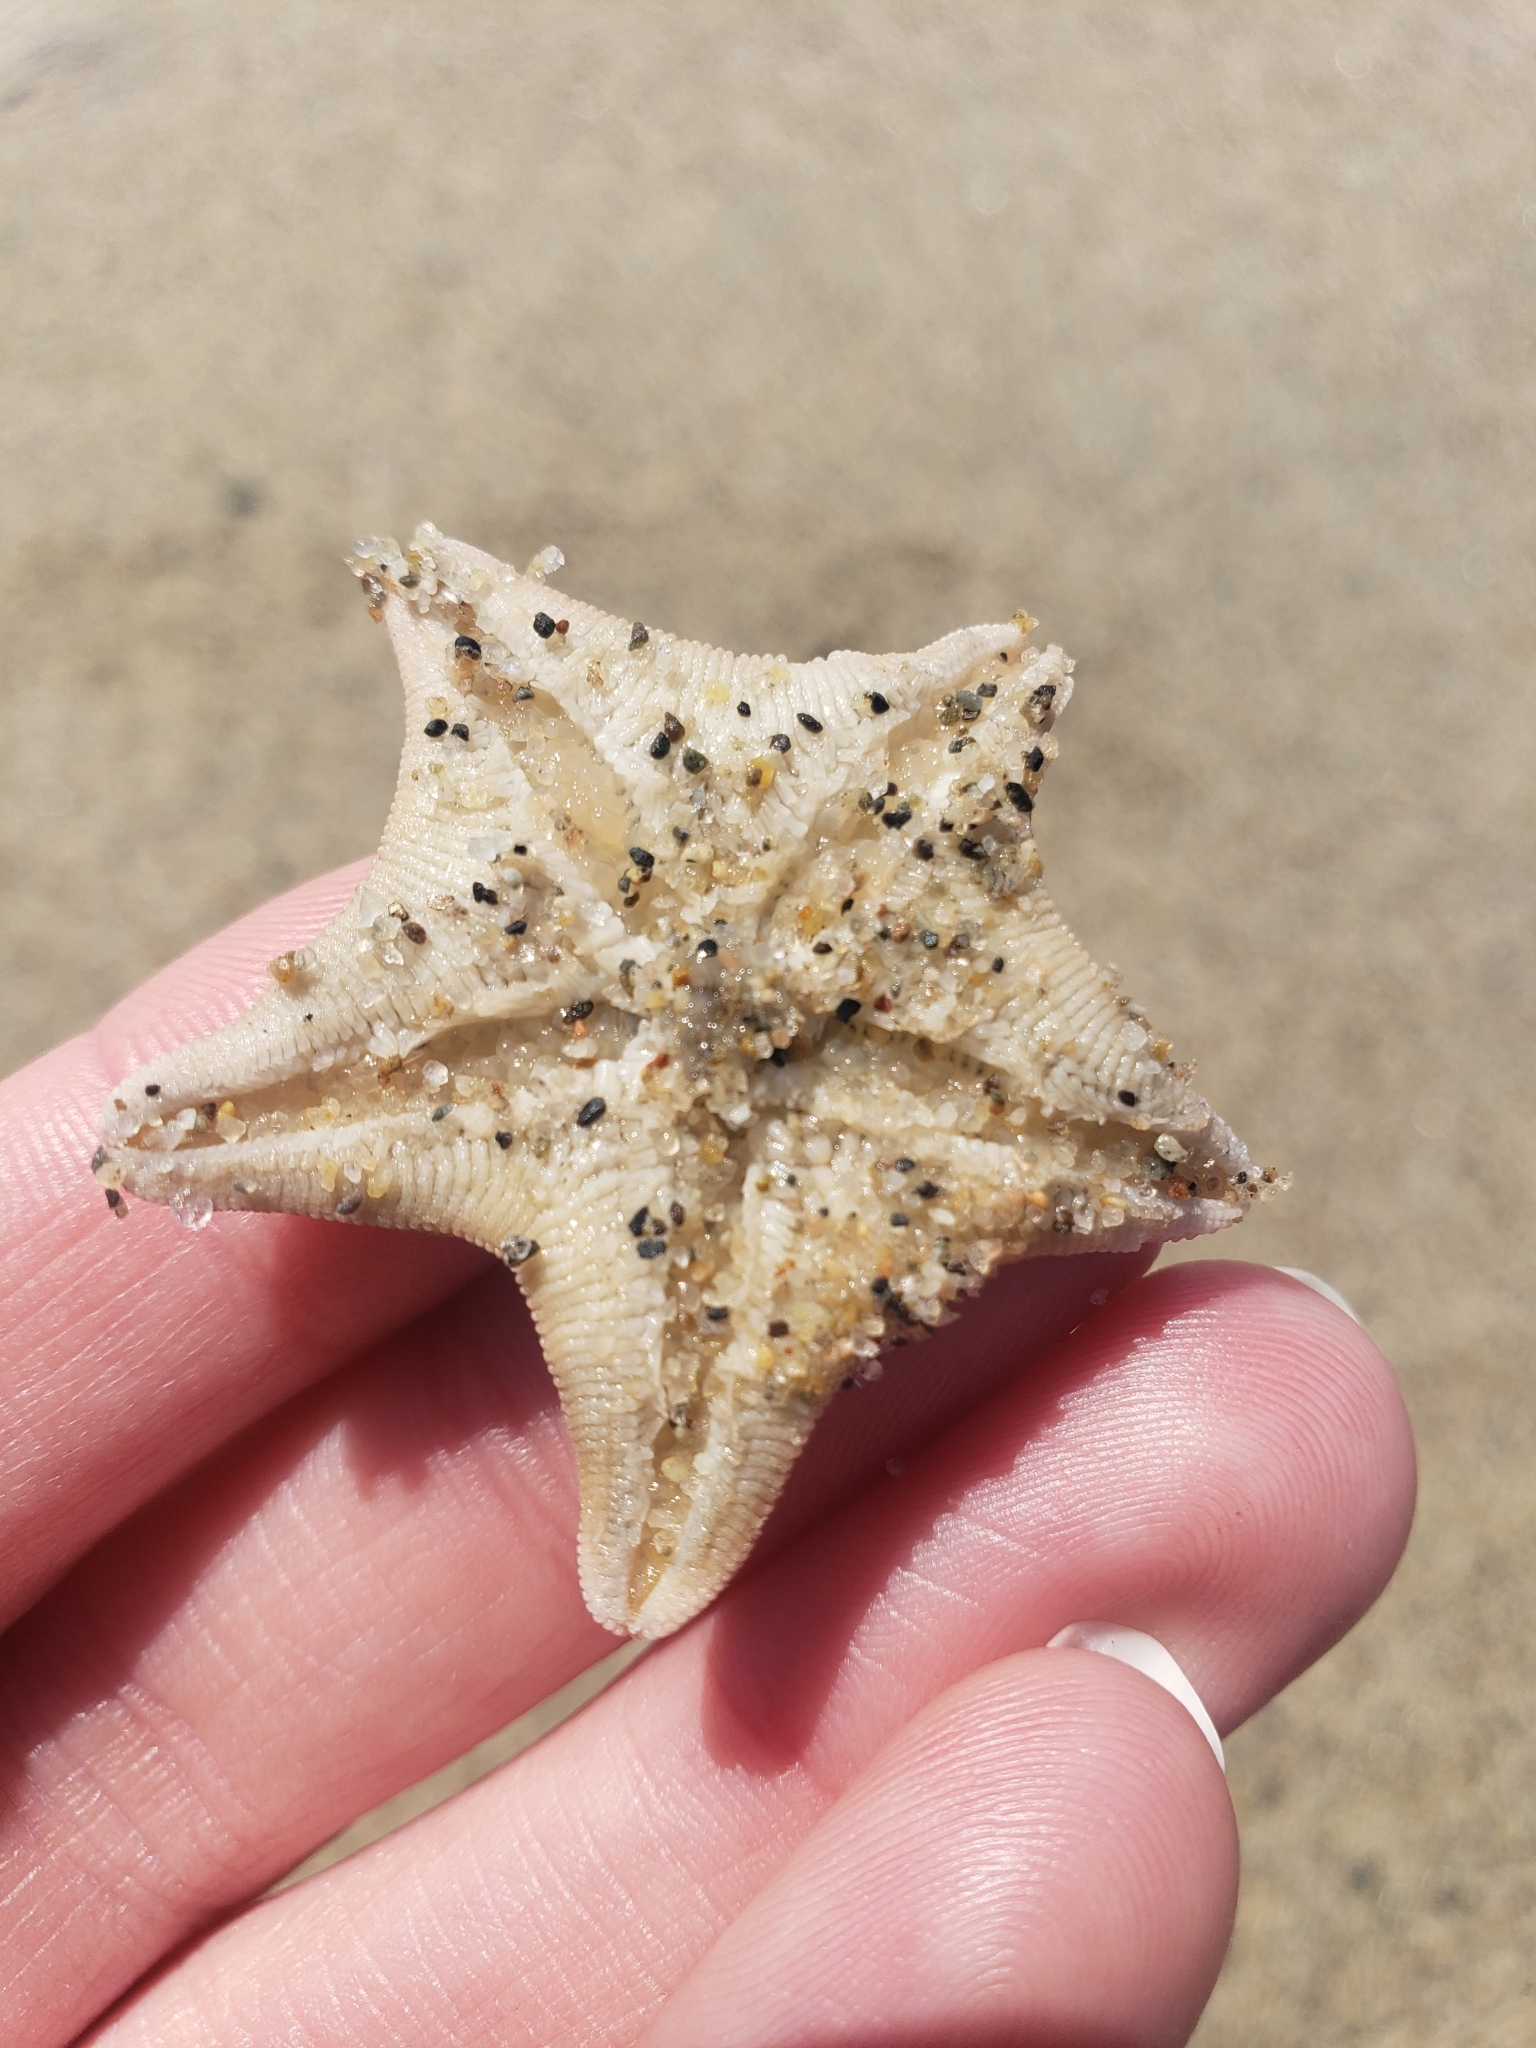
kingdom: Animalia
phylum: Echinodermata
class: Asteroidea
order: Valvatida
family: Asterinidae
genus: Patiria
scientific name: Patiria miniata
